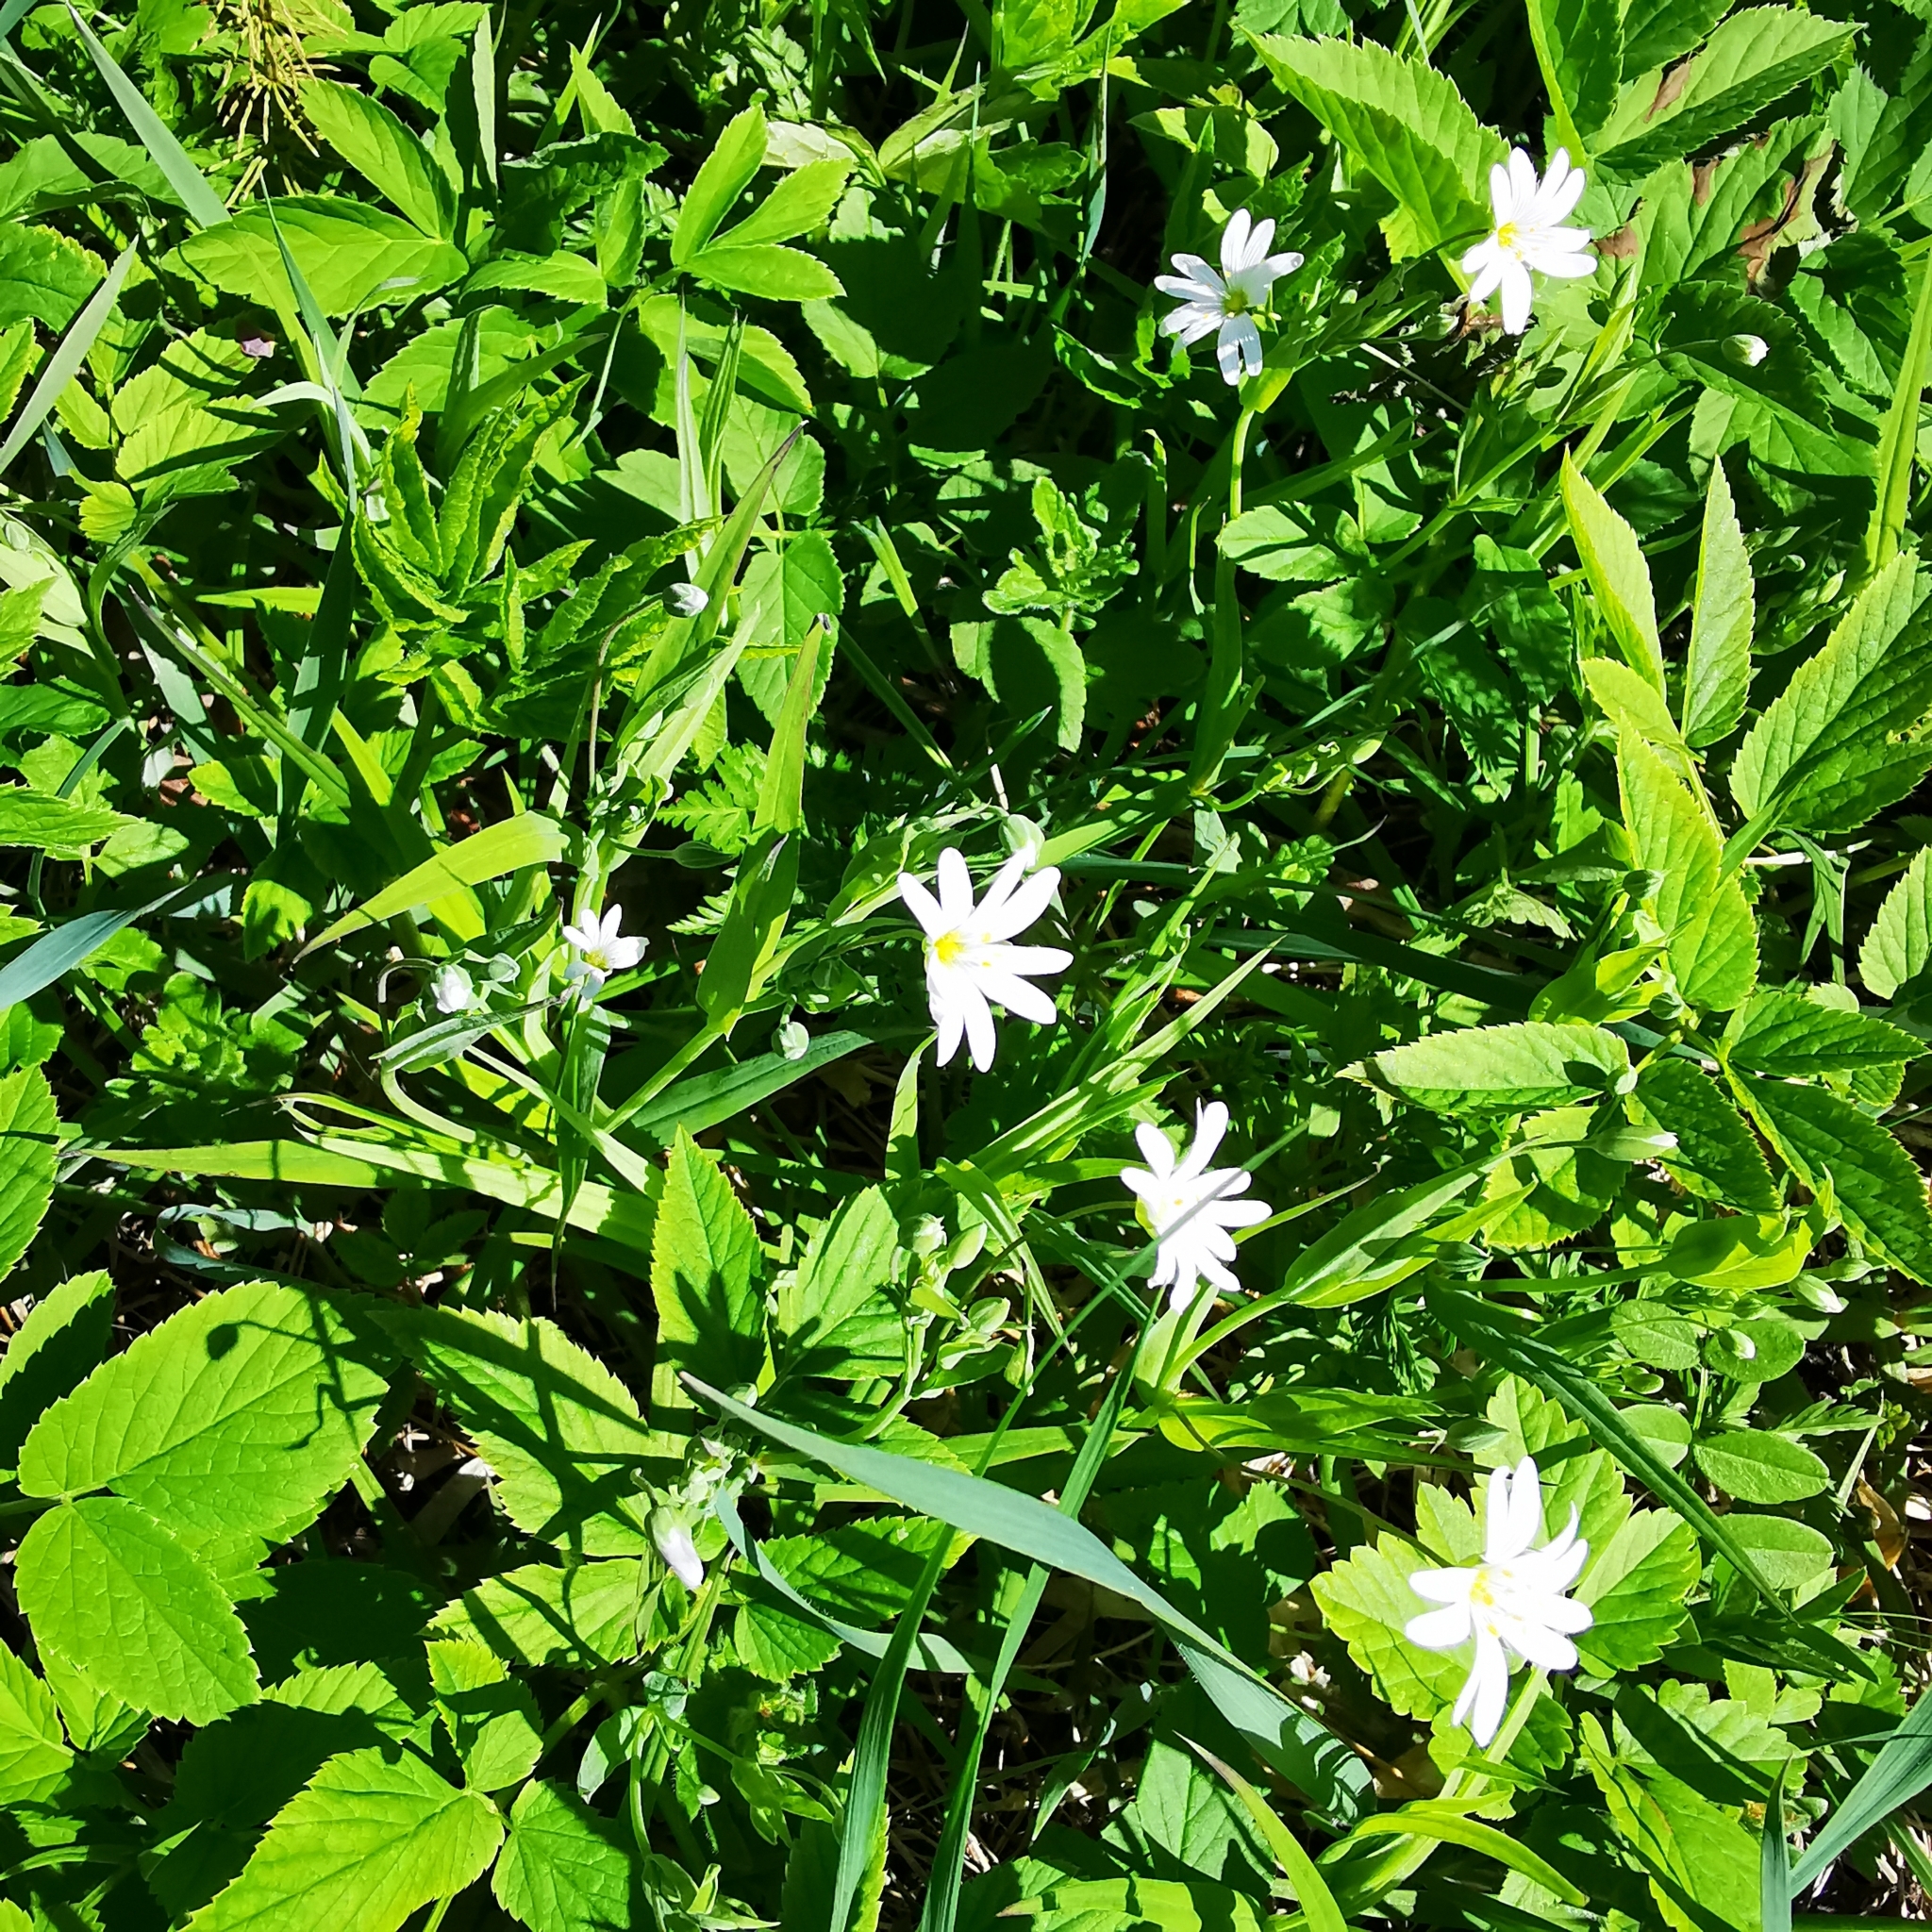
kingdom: Plantae
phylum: Tracheophyta
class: Magnoliopsida
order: Caryophyllales
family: Caryophyllaceae
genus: Rabelera
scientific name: Rabelera holostea
